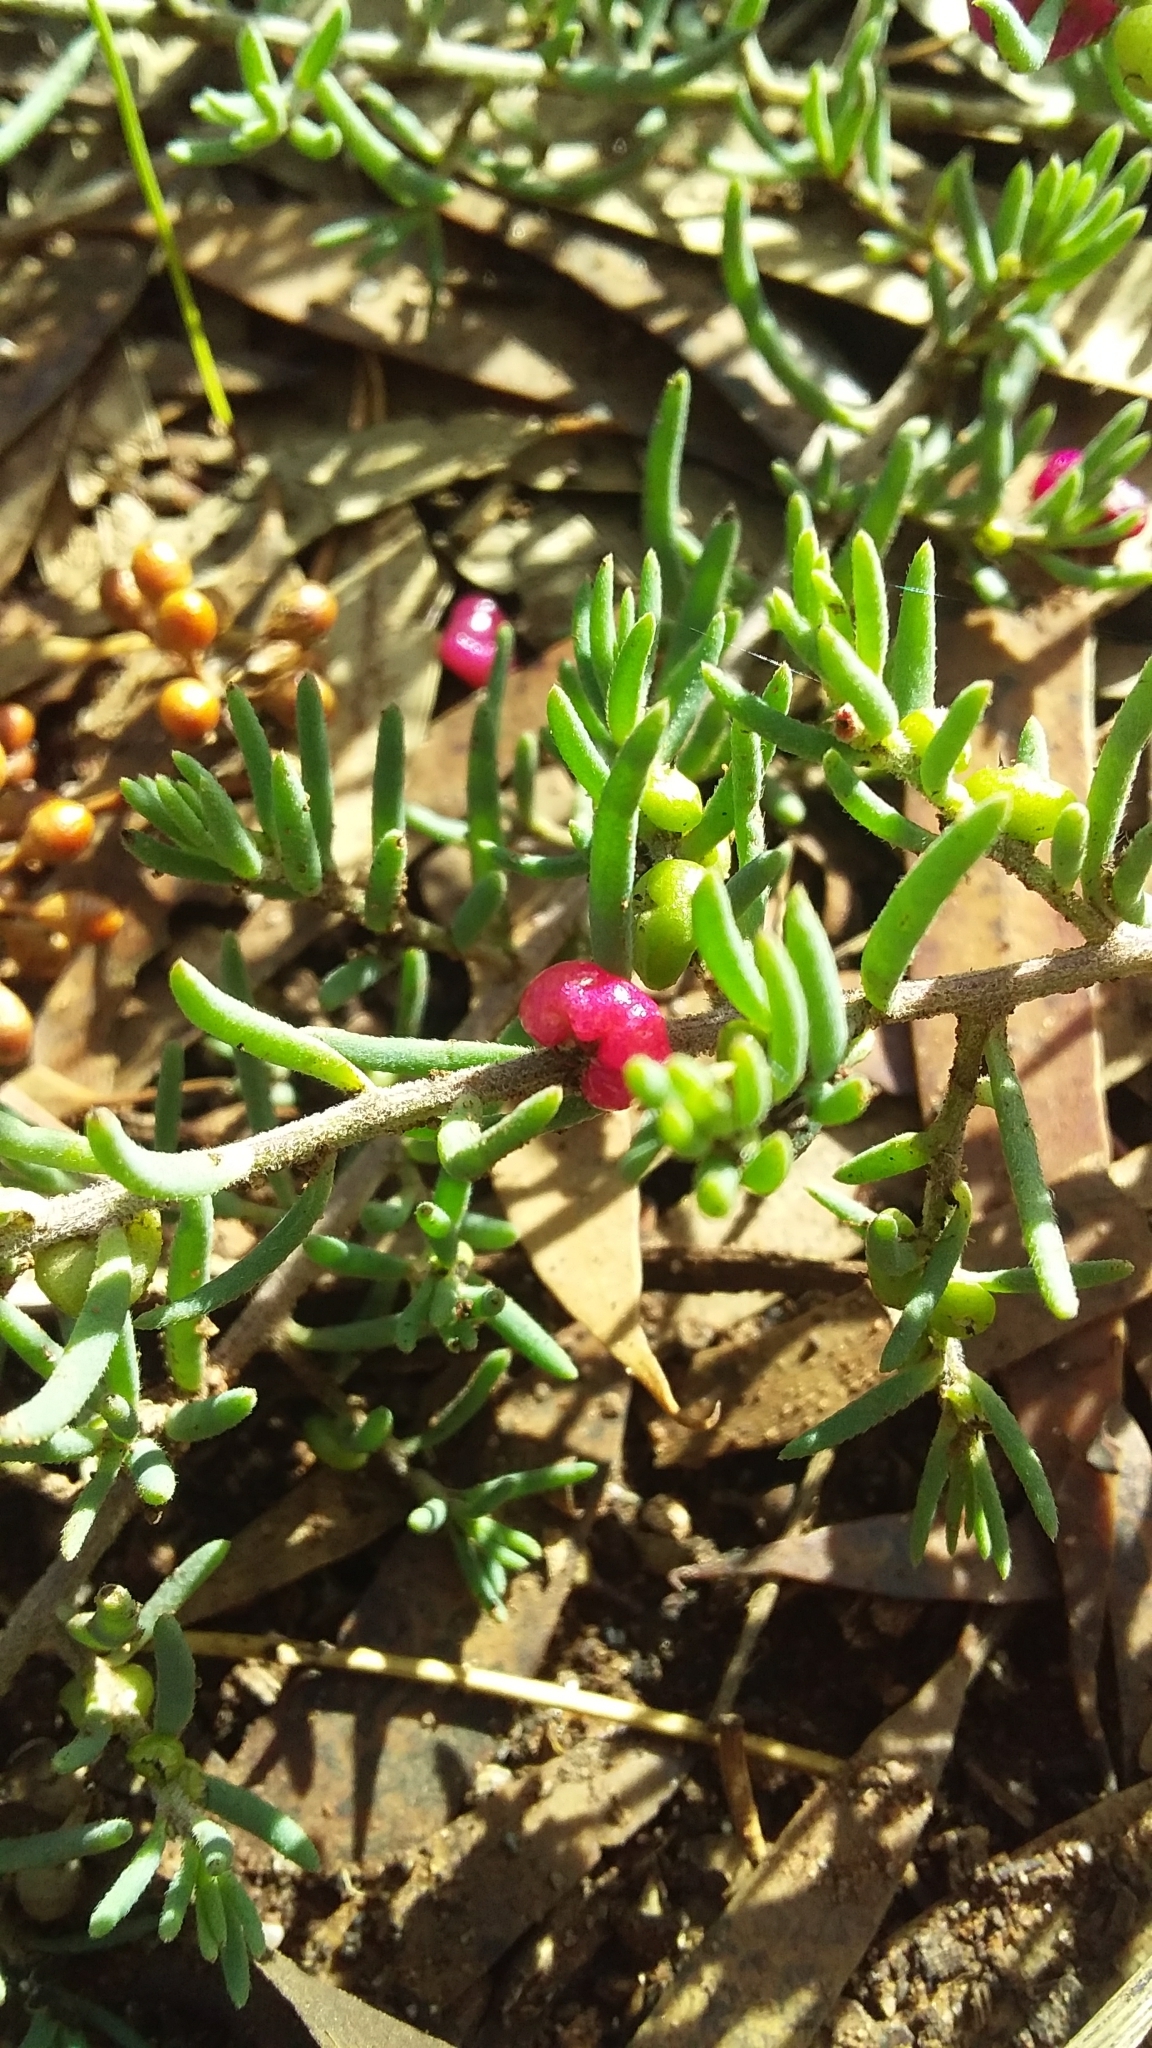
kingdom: Plantae
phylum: Tracheophyta
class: Magnoliopsida
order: Caryophyllales
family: Amaranthaceae
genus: Enchylaena
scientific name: Enchylaena tomentosa
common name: Ruby saltbush
